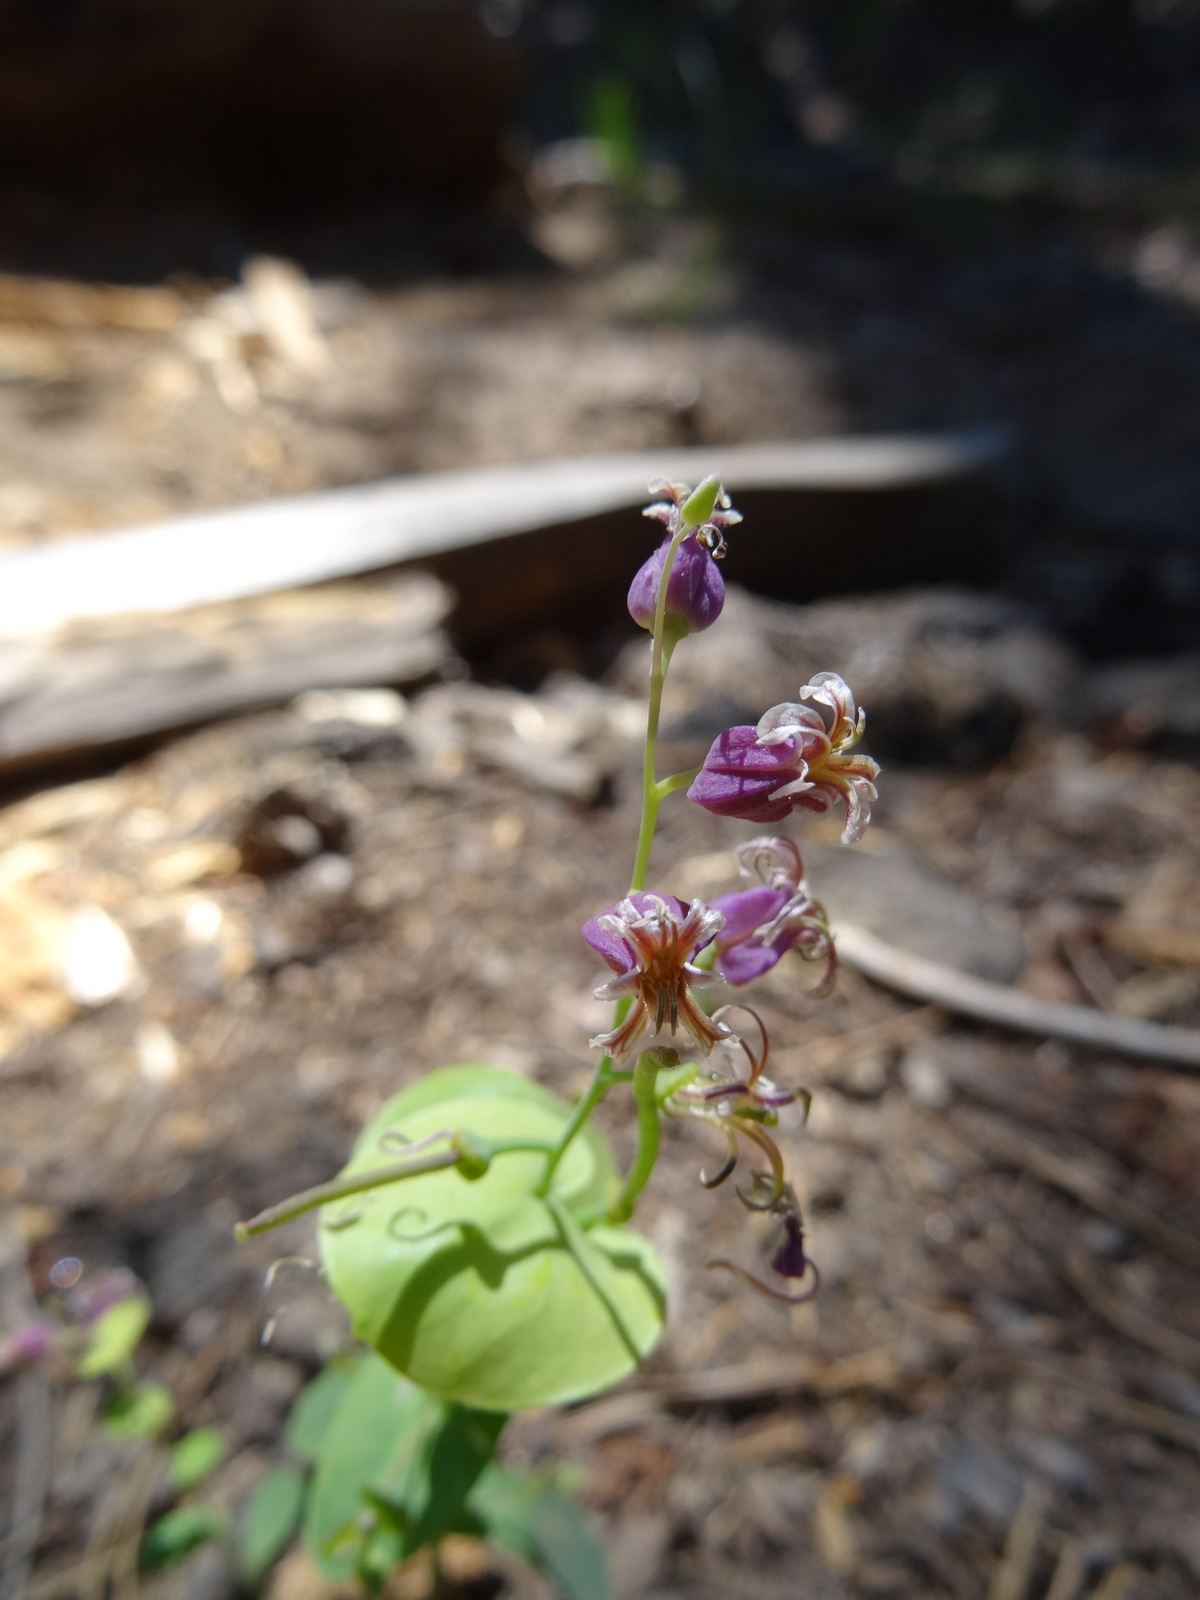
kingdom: Plantae
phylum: Tracheophyta
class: Magnoliopsida
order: Brassicales
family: Brassicaceae
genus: Streptanthus
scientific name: Streptanthus tortuosus
